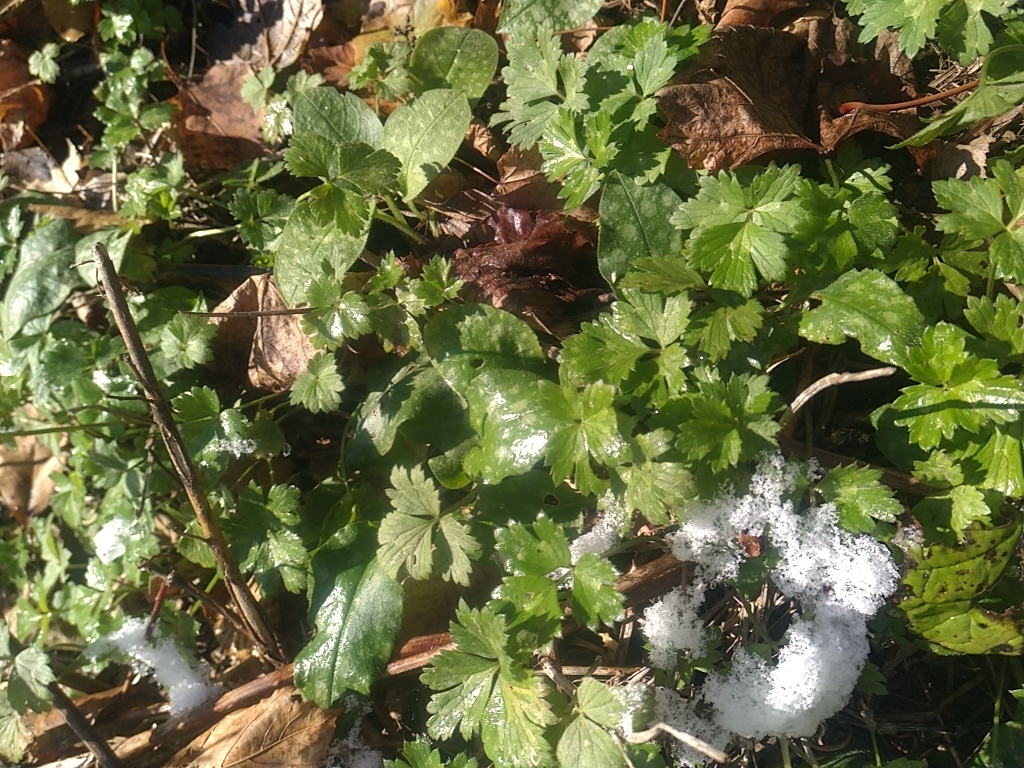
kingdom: Plantae
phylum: Tracheophyta
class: Magnoliopsida
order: Ranunculales
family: Ranunculaceae
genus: Ranunculus
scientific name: Ranunculus repens
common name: Creeping buttercup
